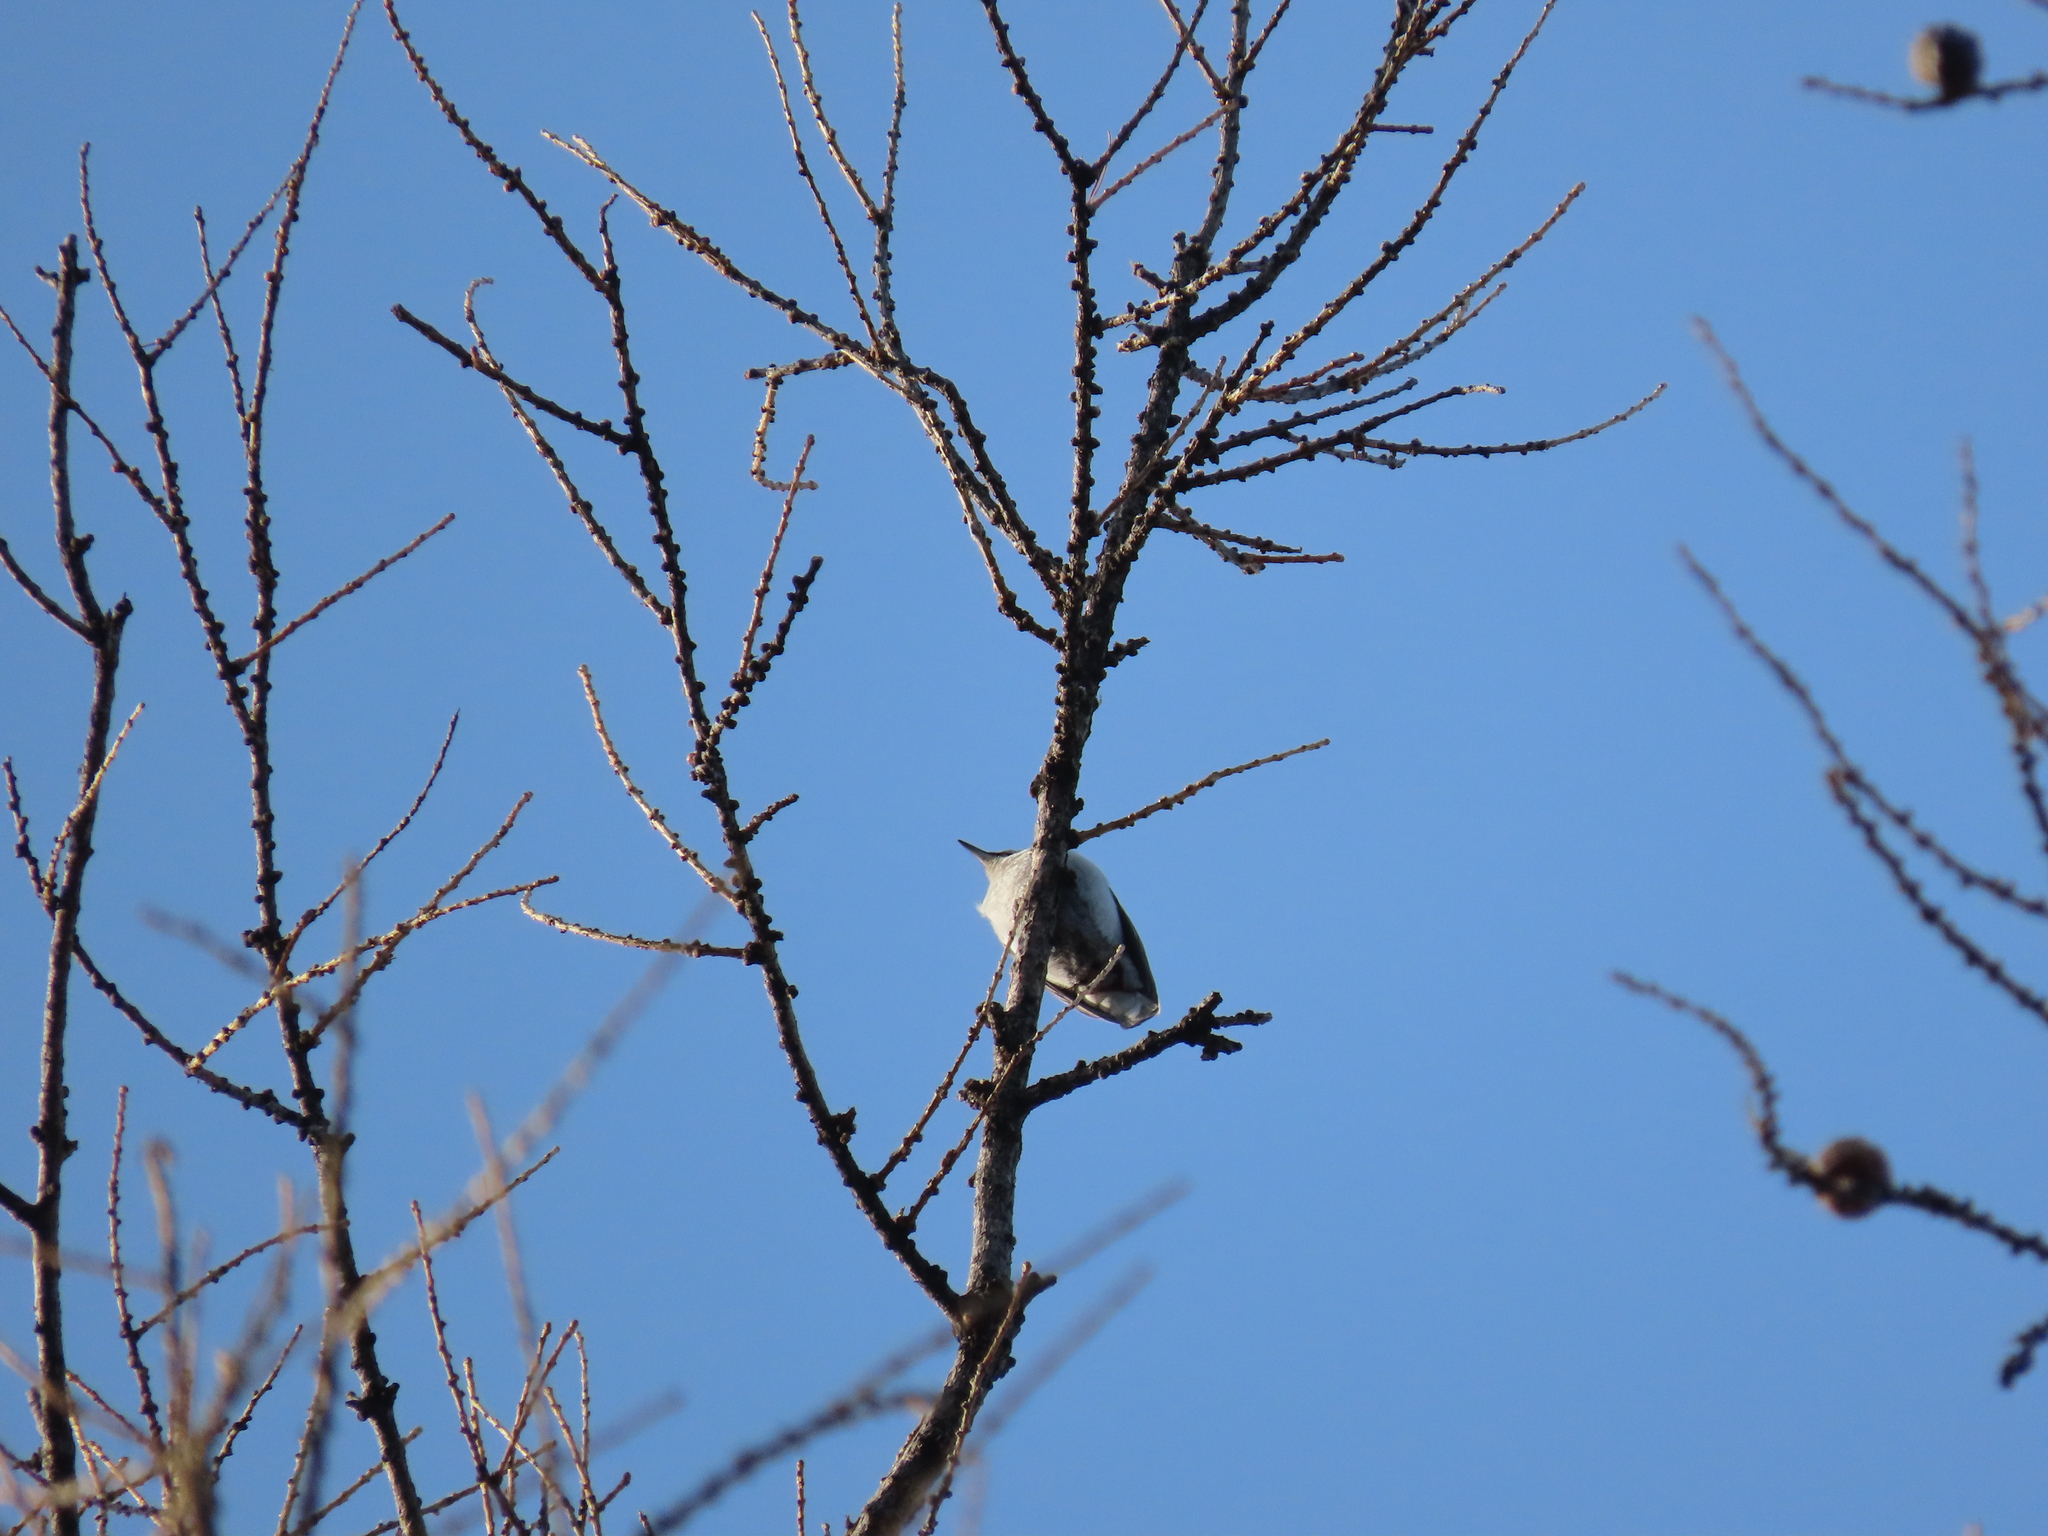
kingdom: Animalia
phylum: Chordata
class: Aves
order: Passeriformes
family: Sittidae
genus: Sitta
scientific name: Sitta europaea
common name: Eurasian nuthatch
